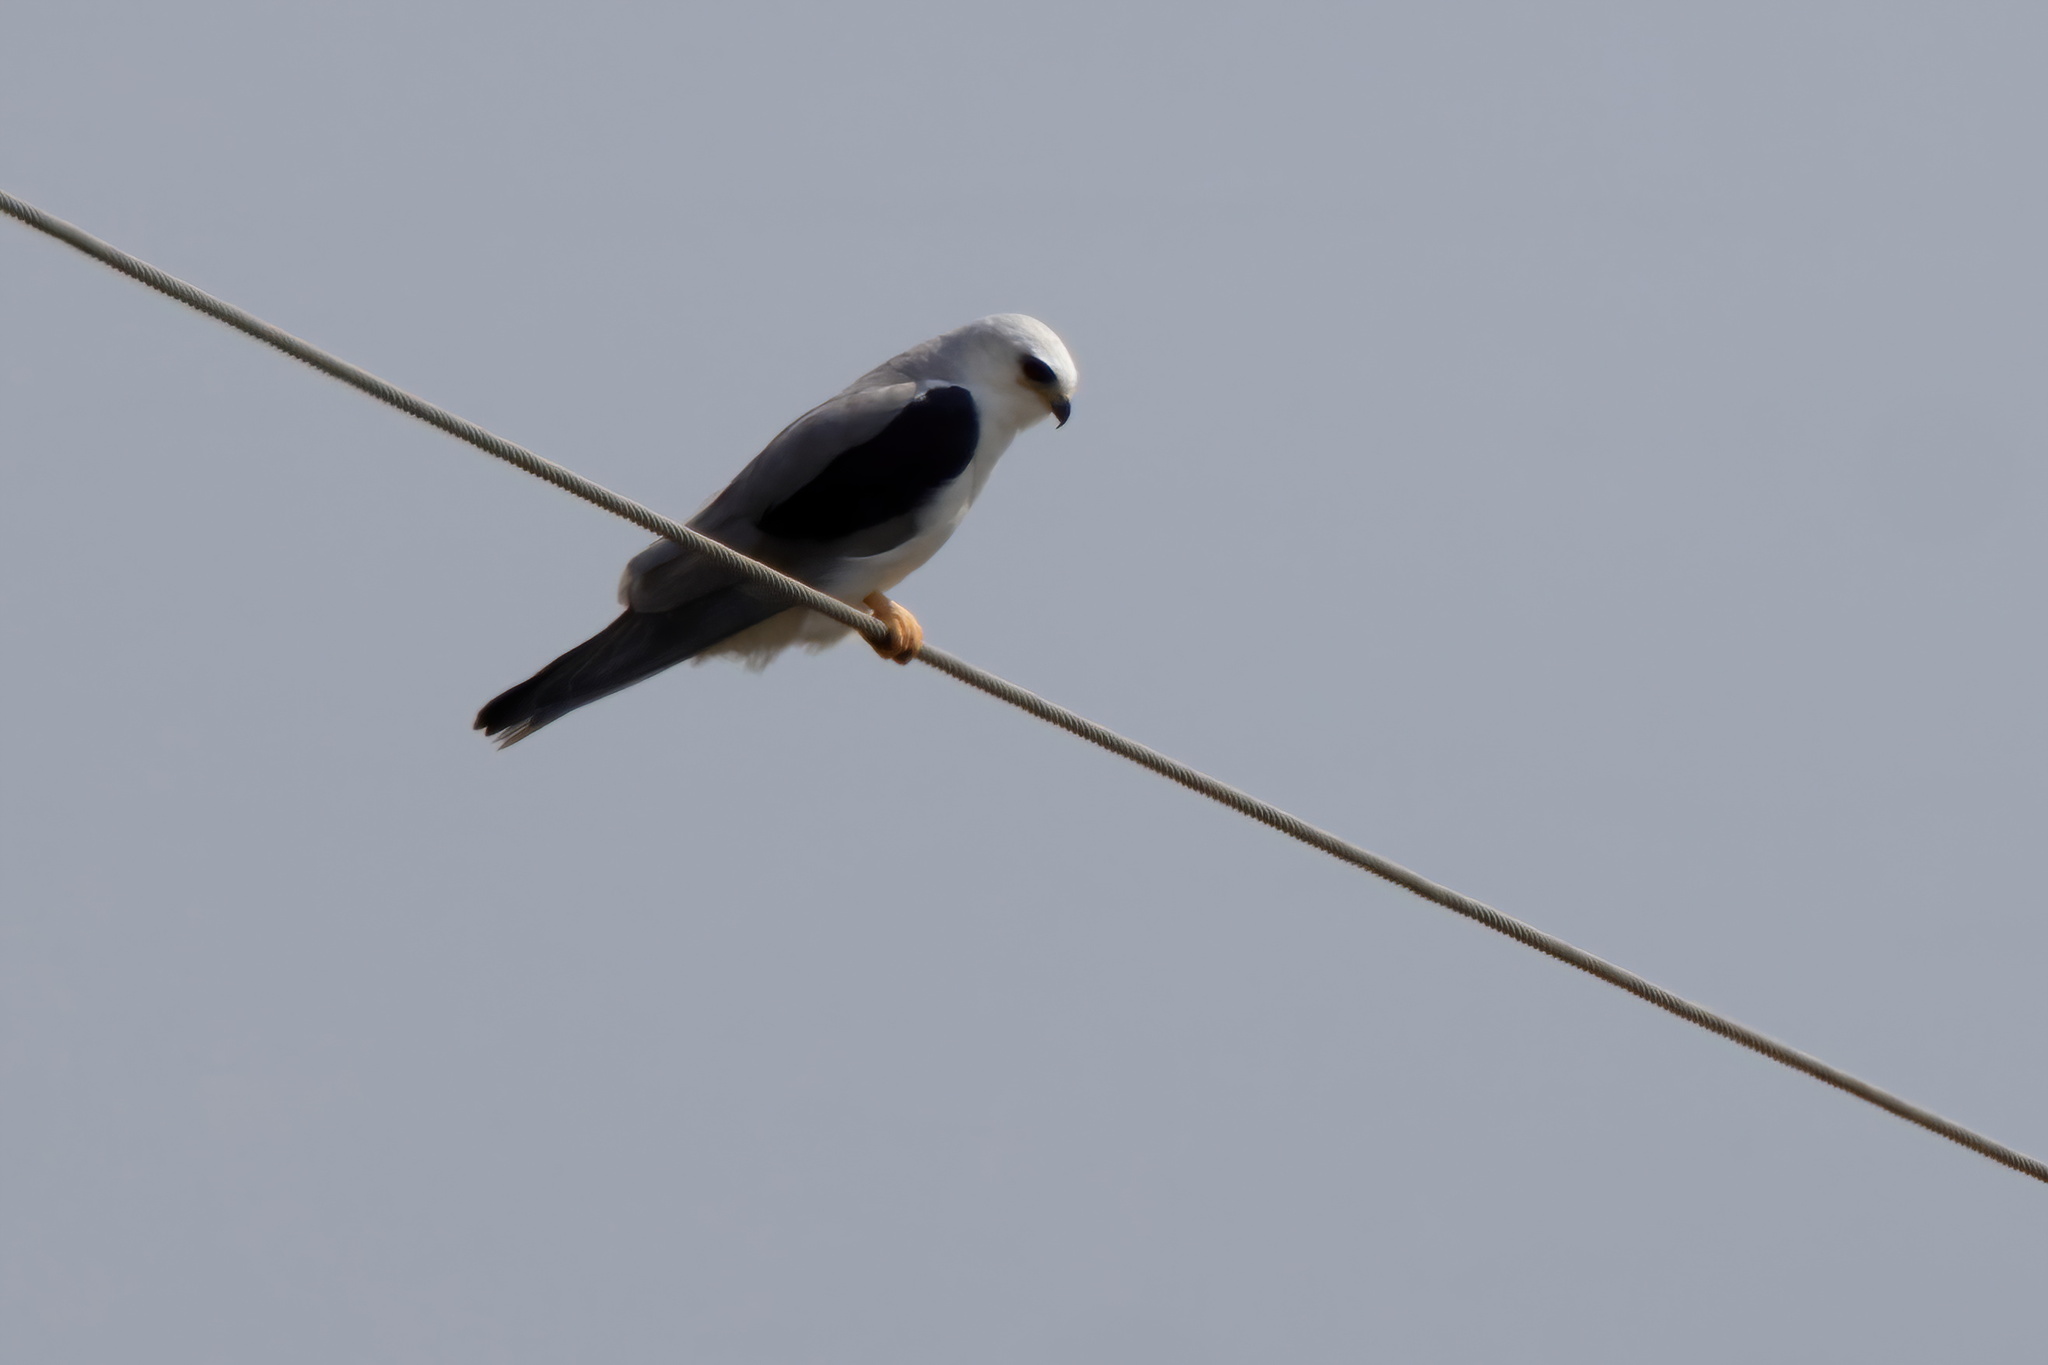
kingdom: Animalia
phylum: Chordata
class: Aves
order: Accipitriformes
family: Accipitridae
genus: Elanus
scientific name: Elanus leucurus
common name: White-tailed kite
